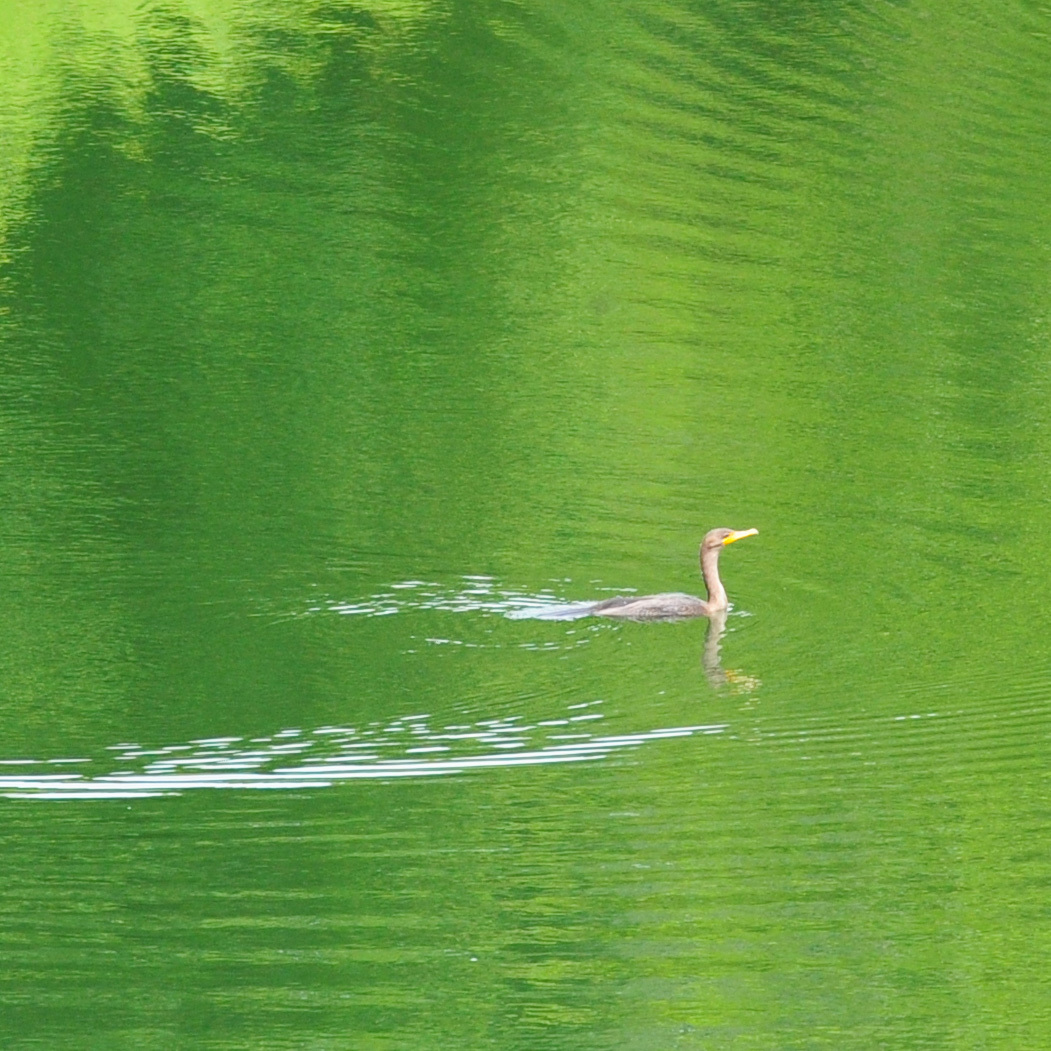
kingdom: Animalia
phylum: Chordata
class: Aves
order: Suliformes
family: Phalacrocoracidae
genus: Phalacrocorax
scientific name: Phalacrocorax auritus
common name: Double-crested cormorant
